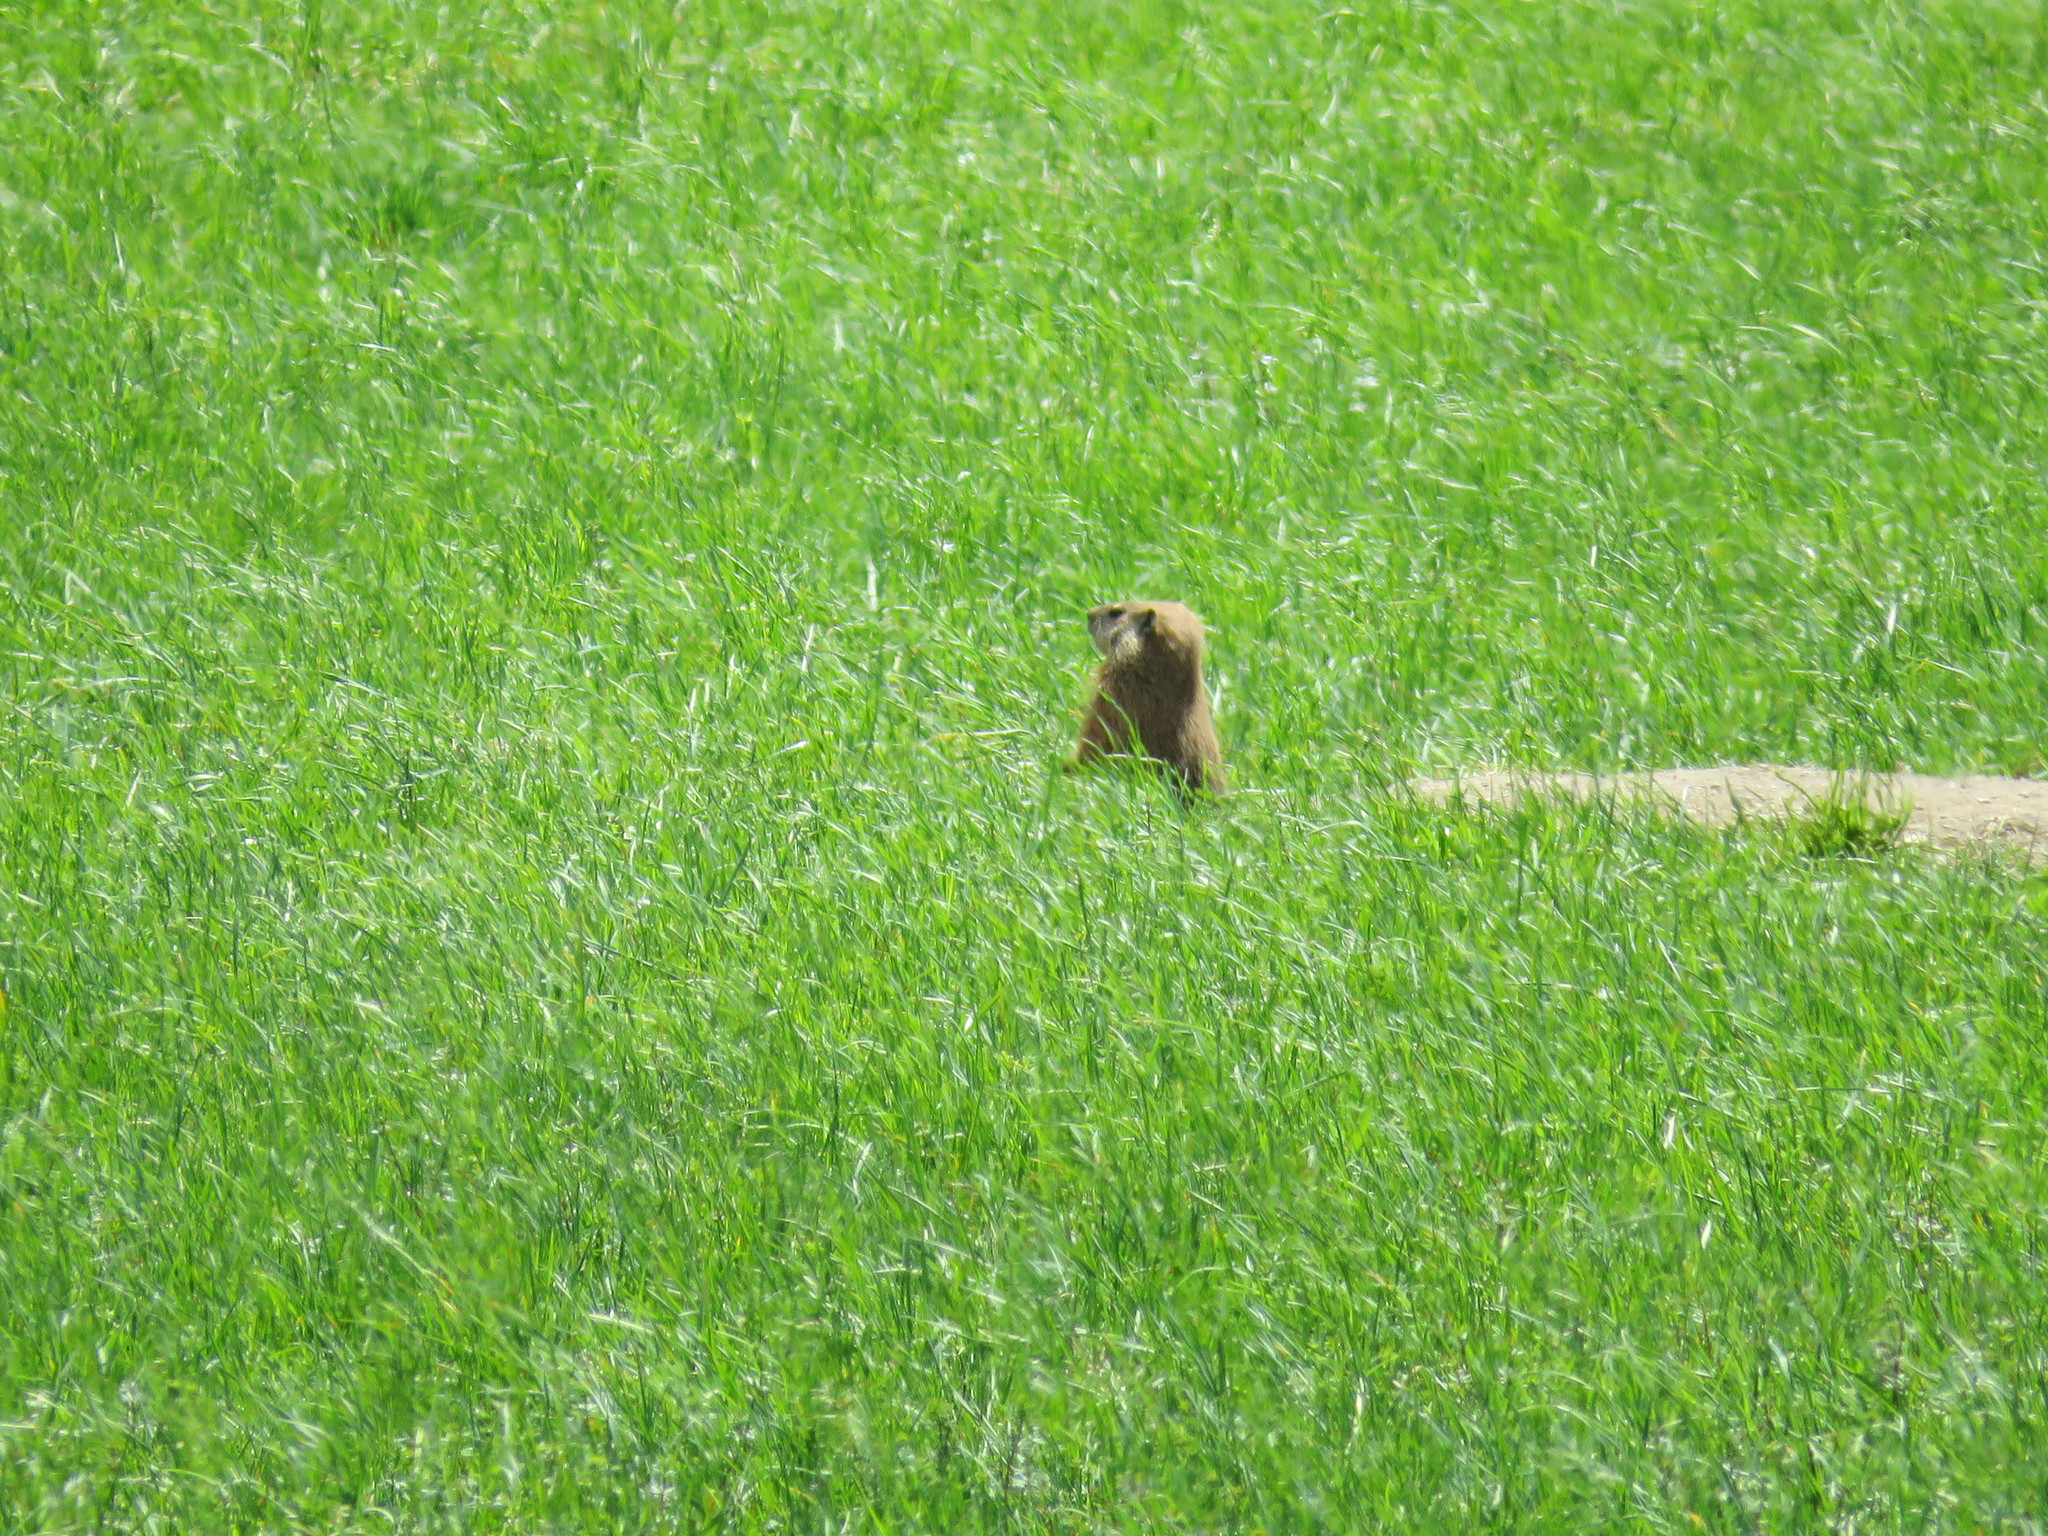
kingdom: Animalia
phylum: Chordata
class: Mammalia
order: Rodentia
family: Sciuridae
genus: Marmota
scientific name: Marmota monax
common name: Groundhog
